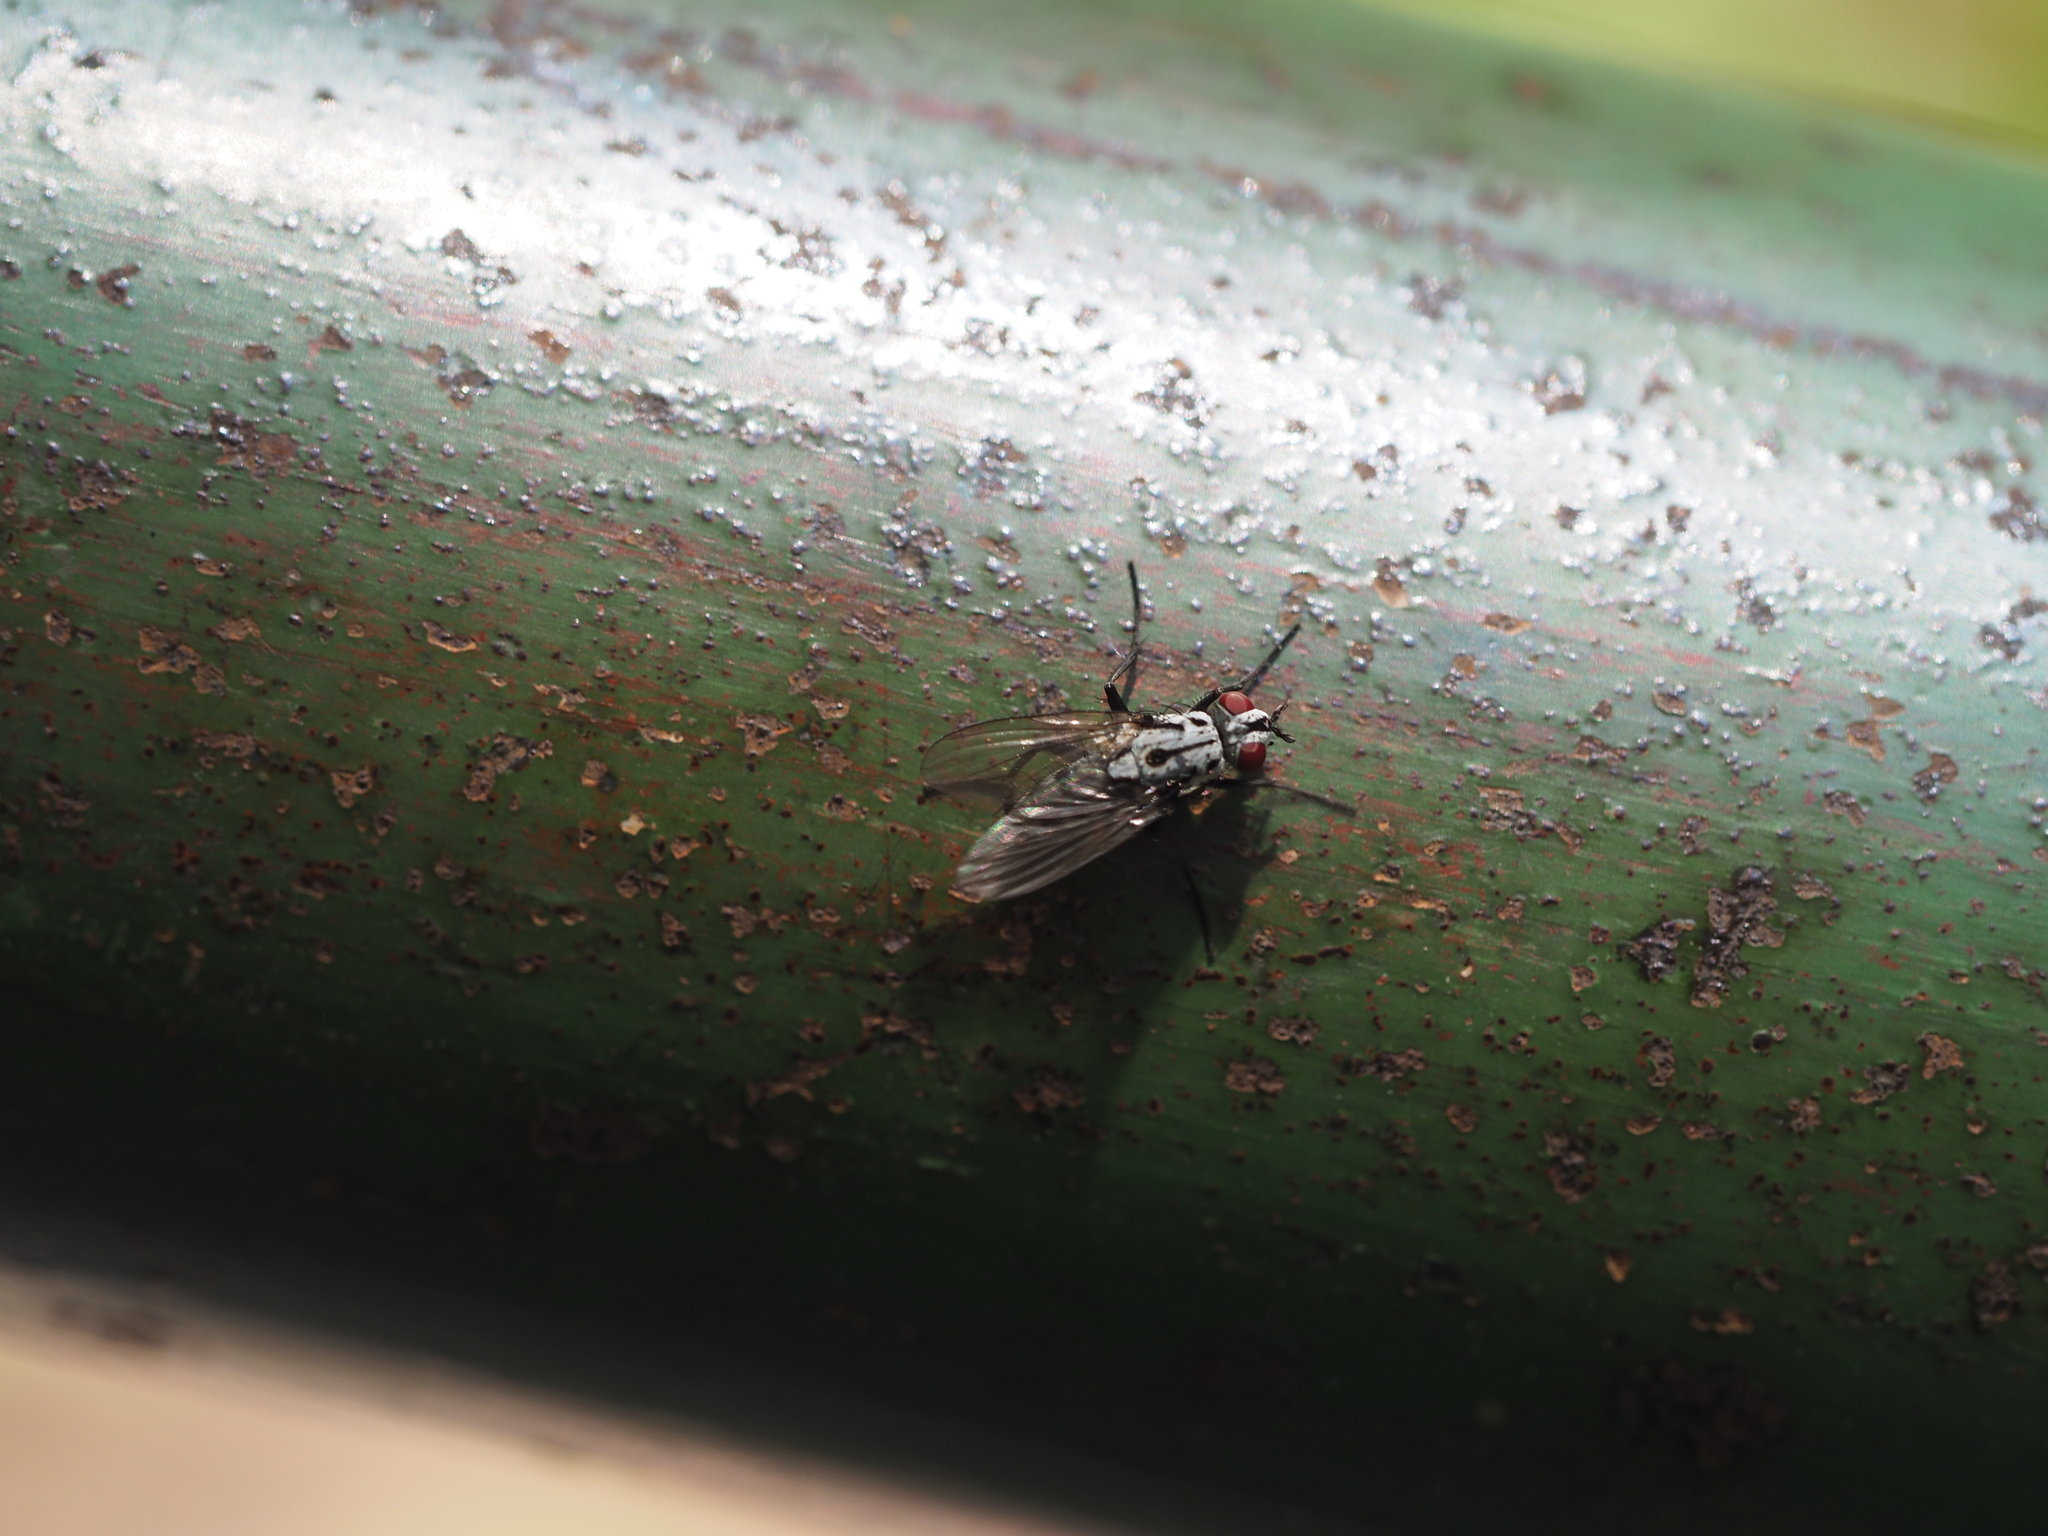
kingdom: Animalia
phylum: Arthropoda
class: Insecta
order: Diptera
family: Anthomyiidae
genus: Eustalomyia
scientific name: Eustalomyia hilaris
